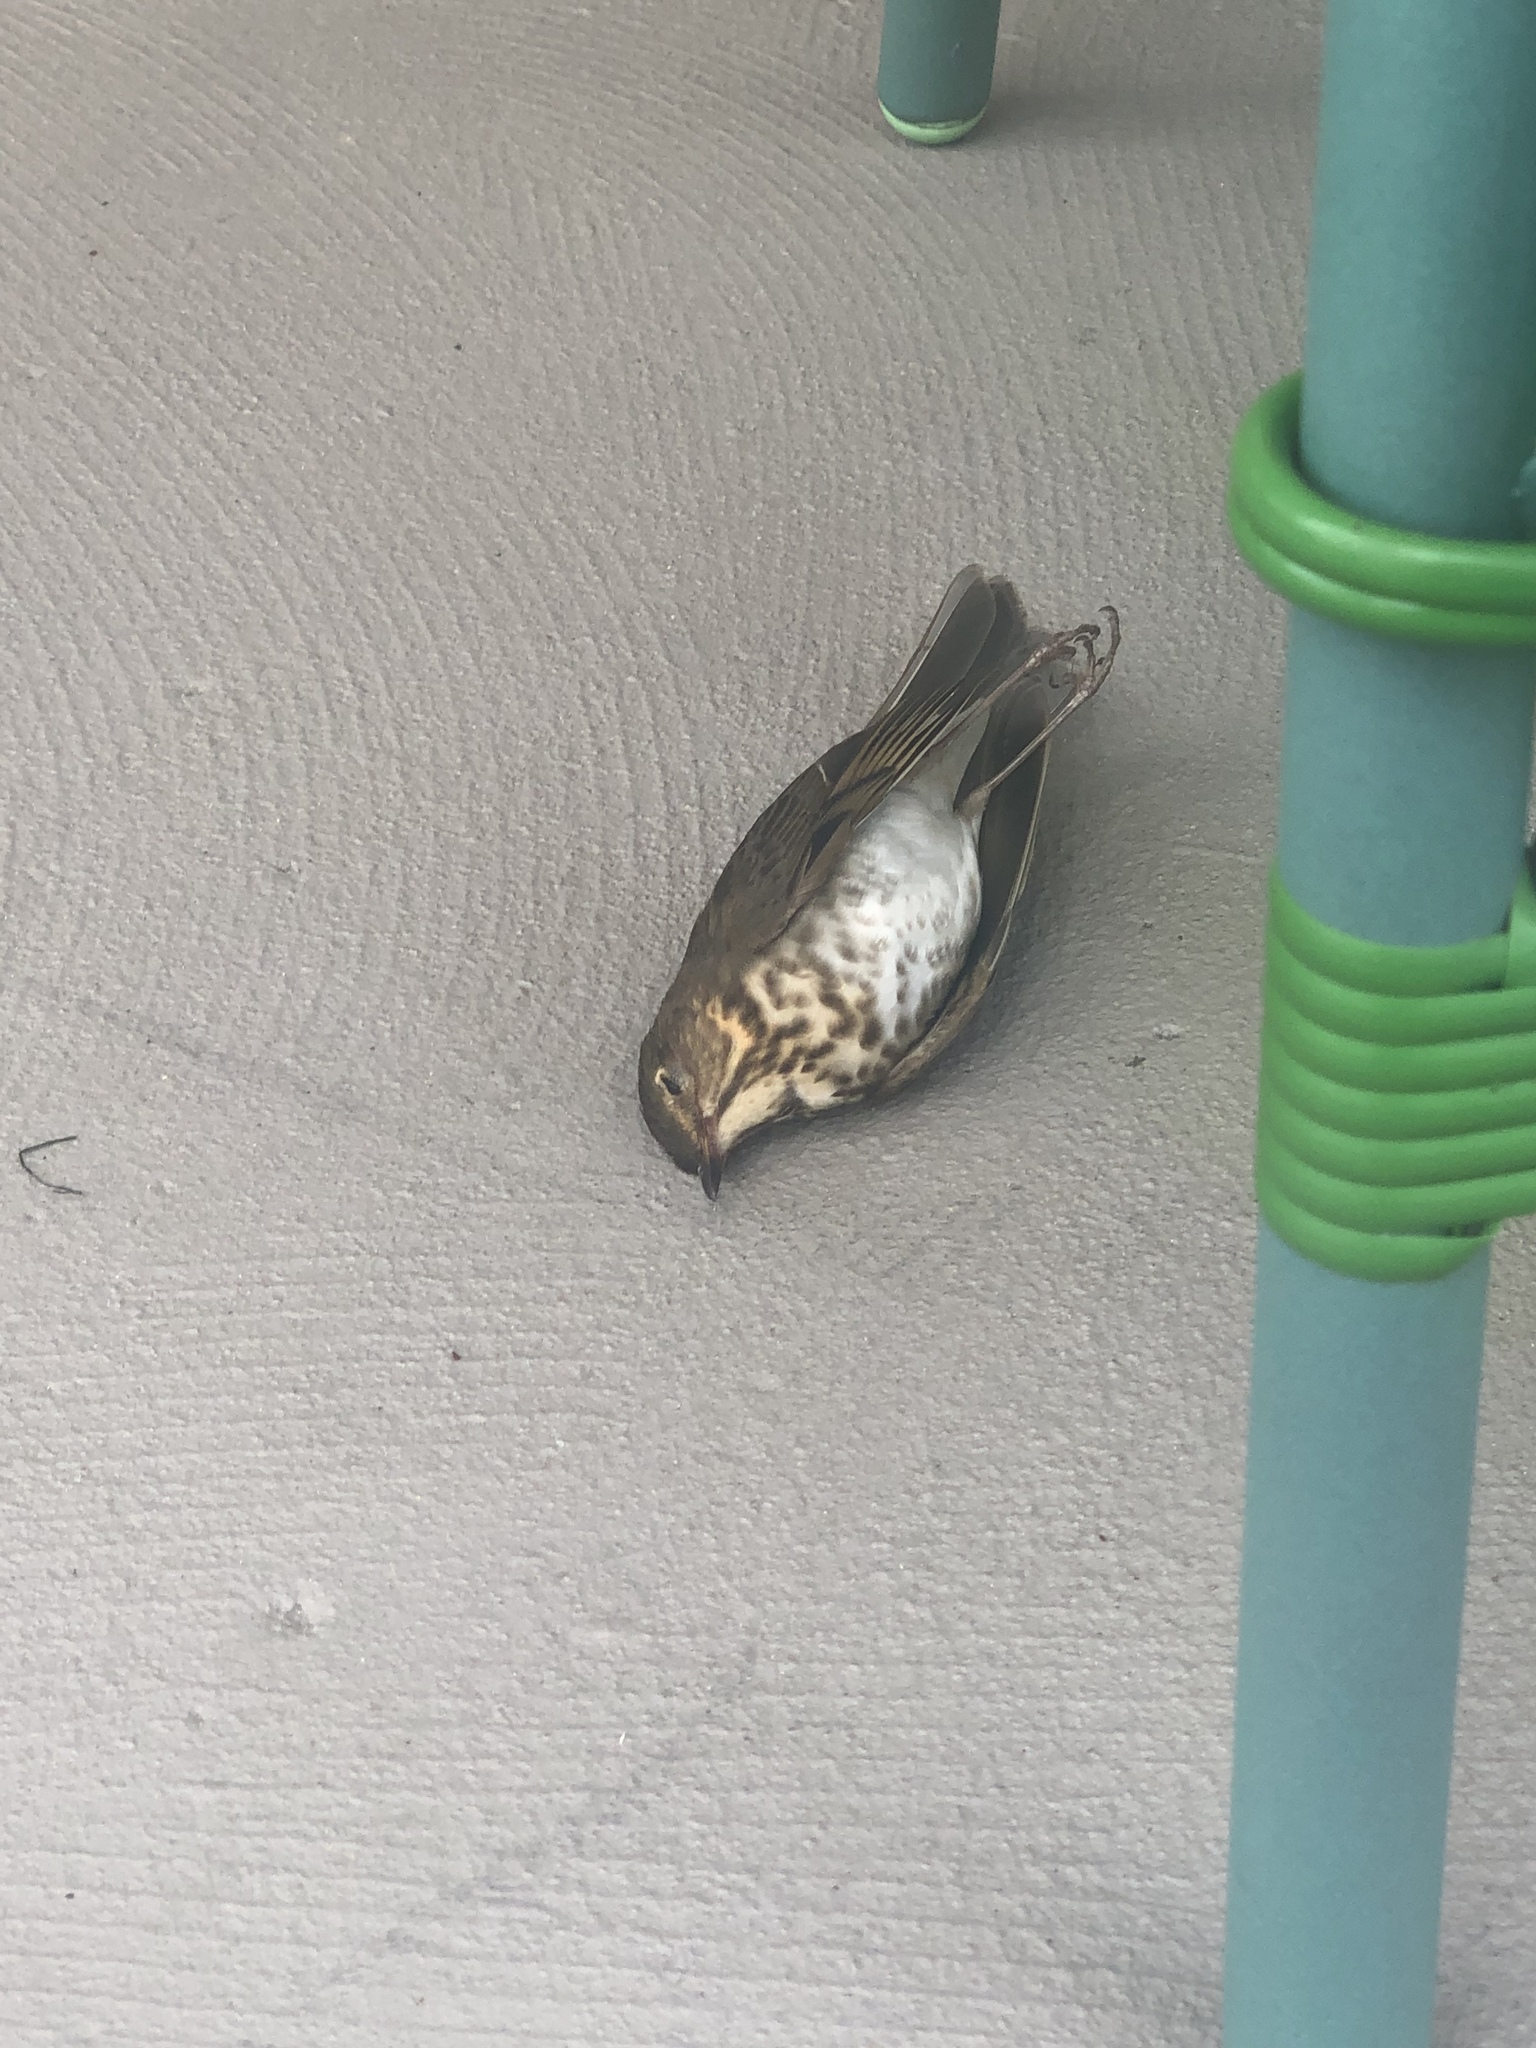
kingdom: Animalia
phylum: Chordata
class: Aves
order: Passeriformes
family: Turdidae
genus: Catharus
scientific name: Catharus ustulatus
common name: Swainson's thrush
